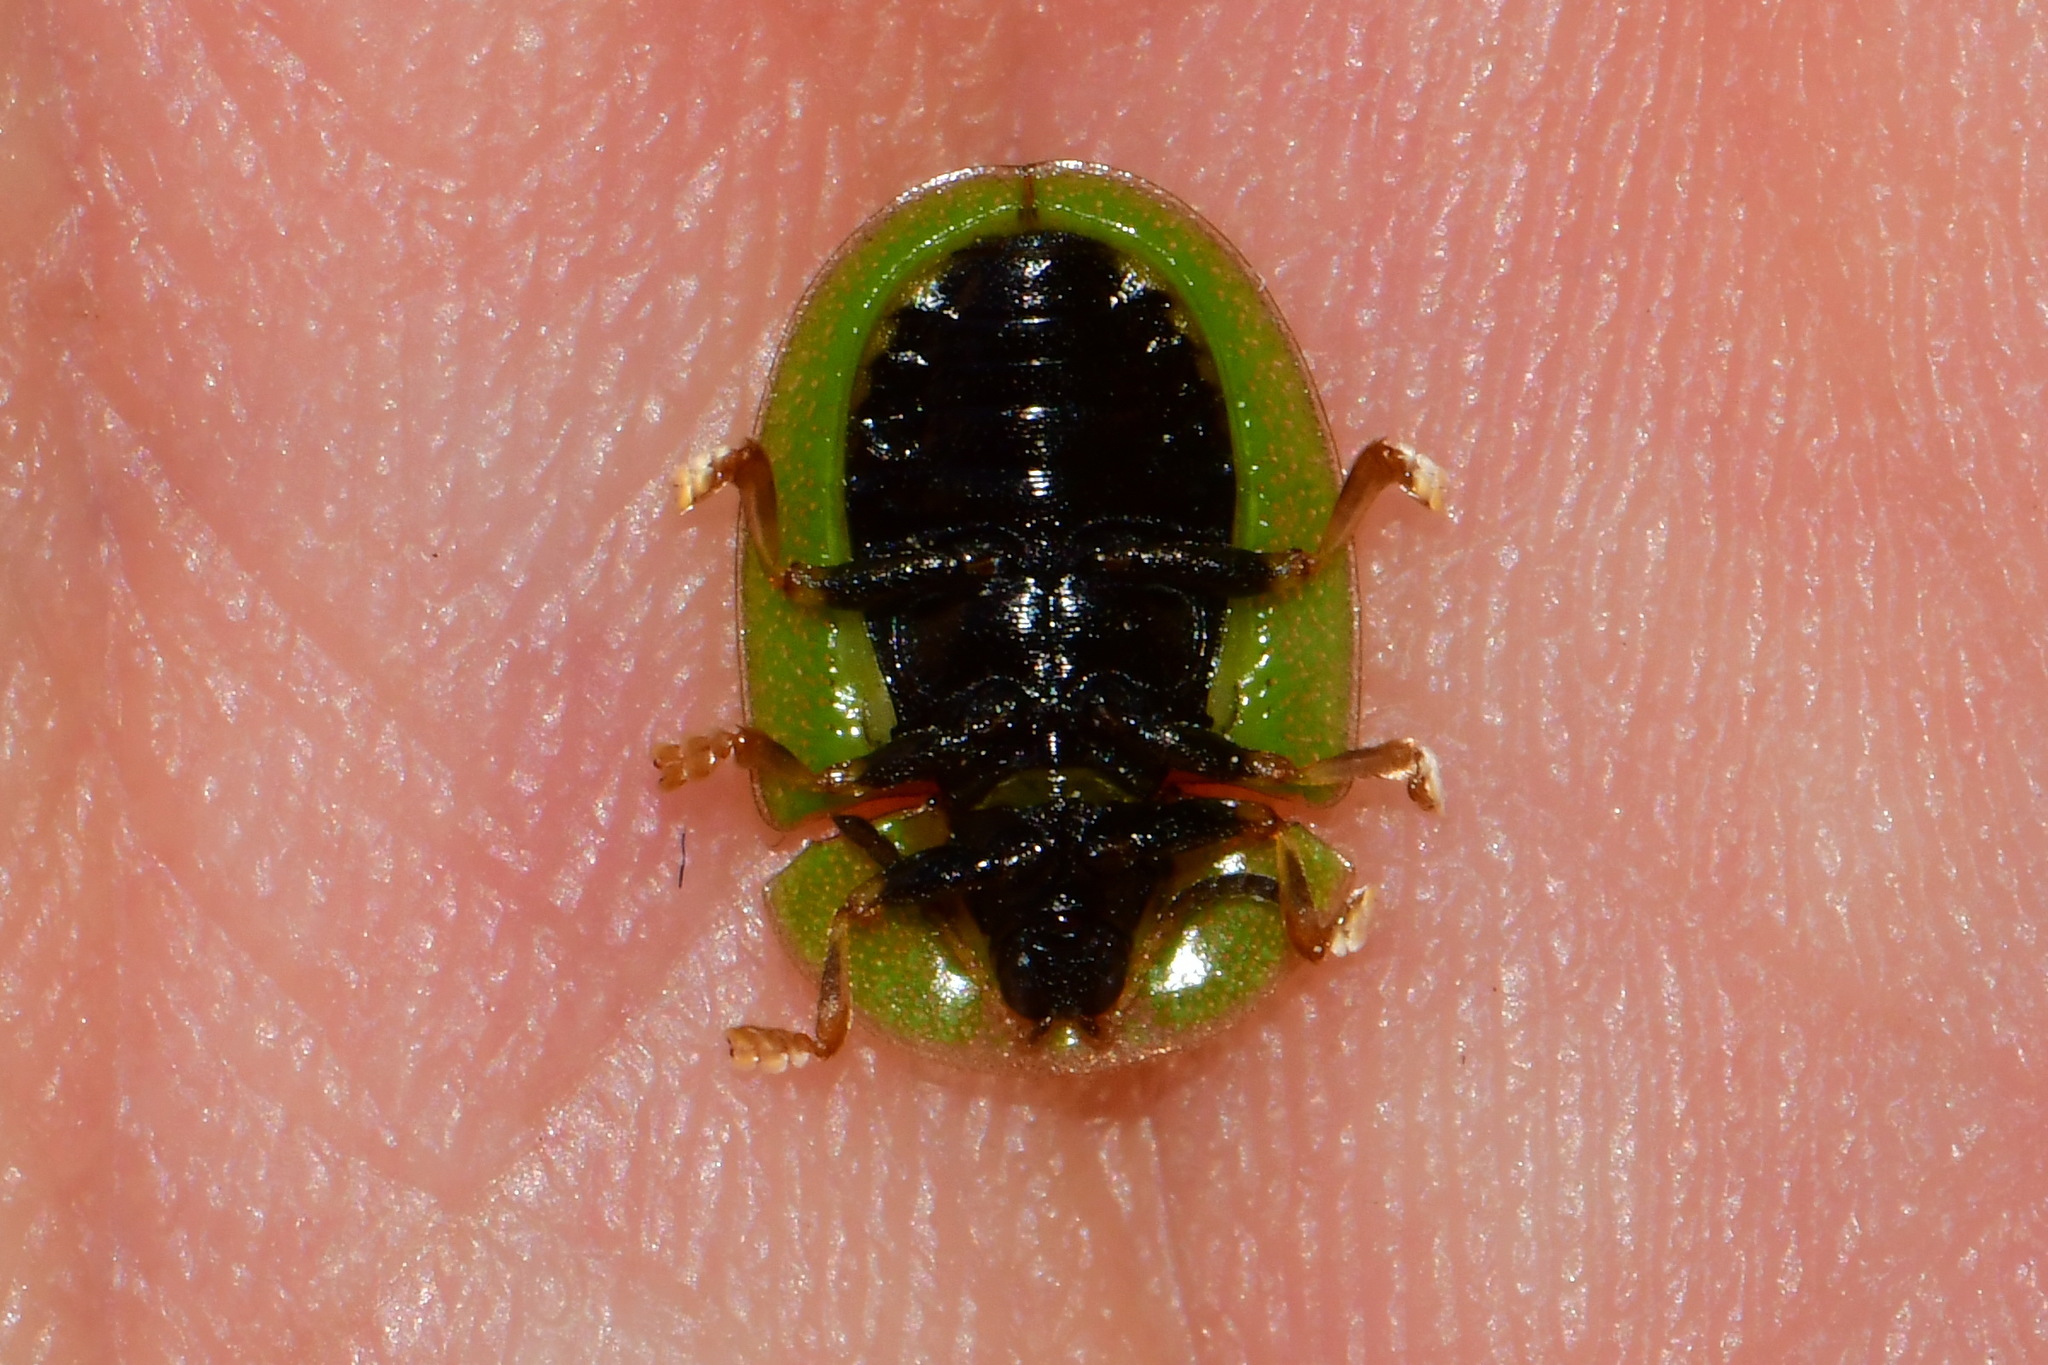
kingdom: Animalia
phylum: Arthropoda
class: Insecta
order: Coleoptera
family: Chrysomelidae
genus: Cassida
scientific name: Cassida rubiginosa
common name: Thistle tortoise beetle
